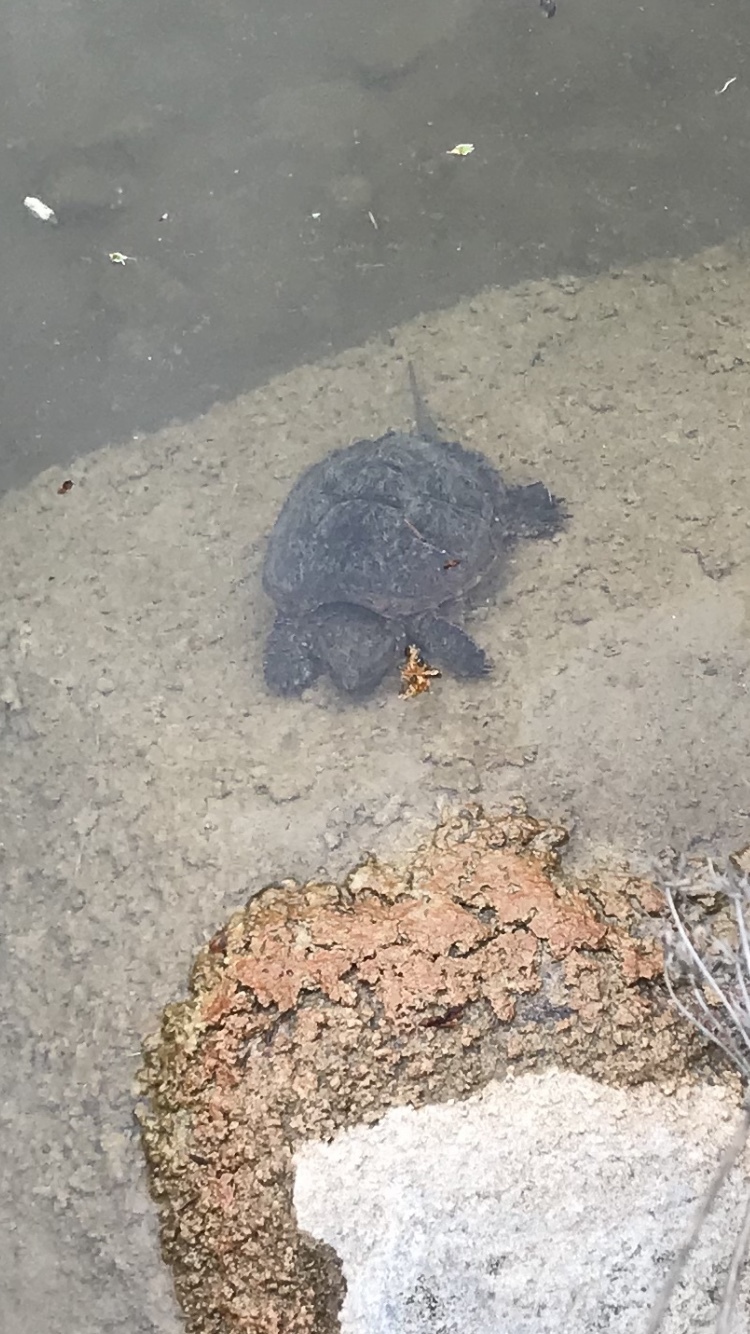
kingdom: Animalia
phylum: Chordata
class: Testudines
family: Chelydridae
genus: Chelydra
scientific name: Chelydra serpentina
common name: Common snapping turtle
